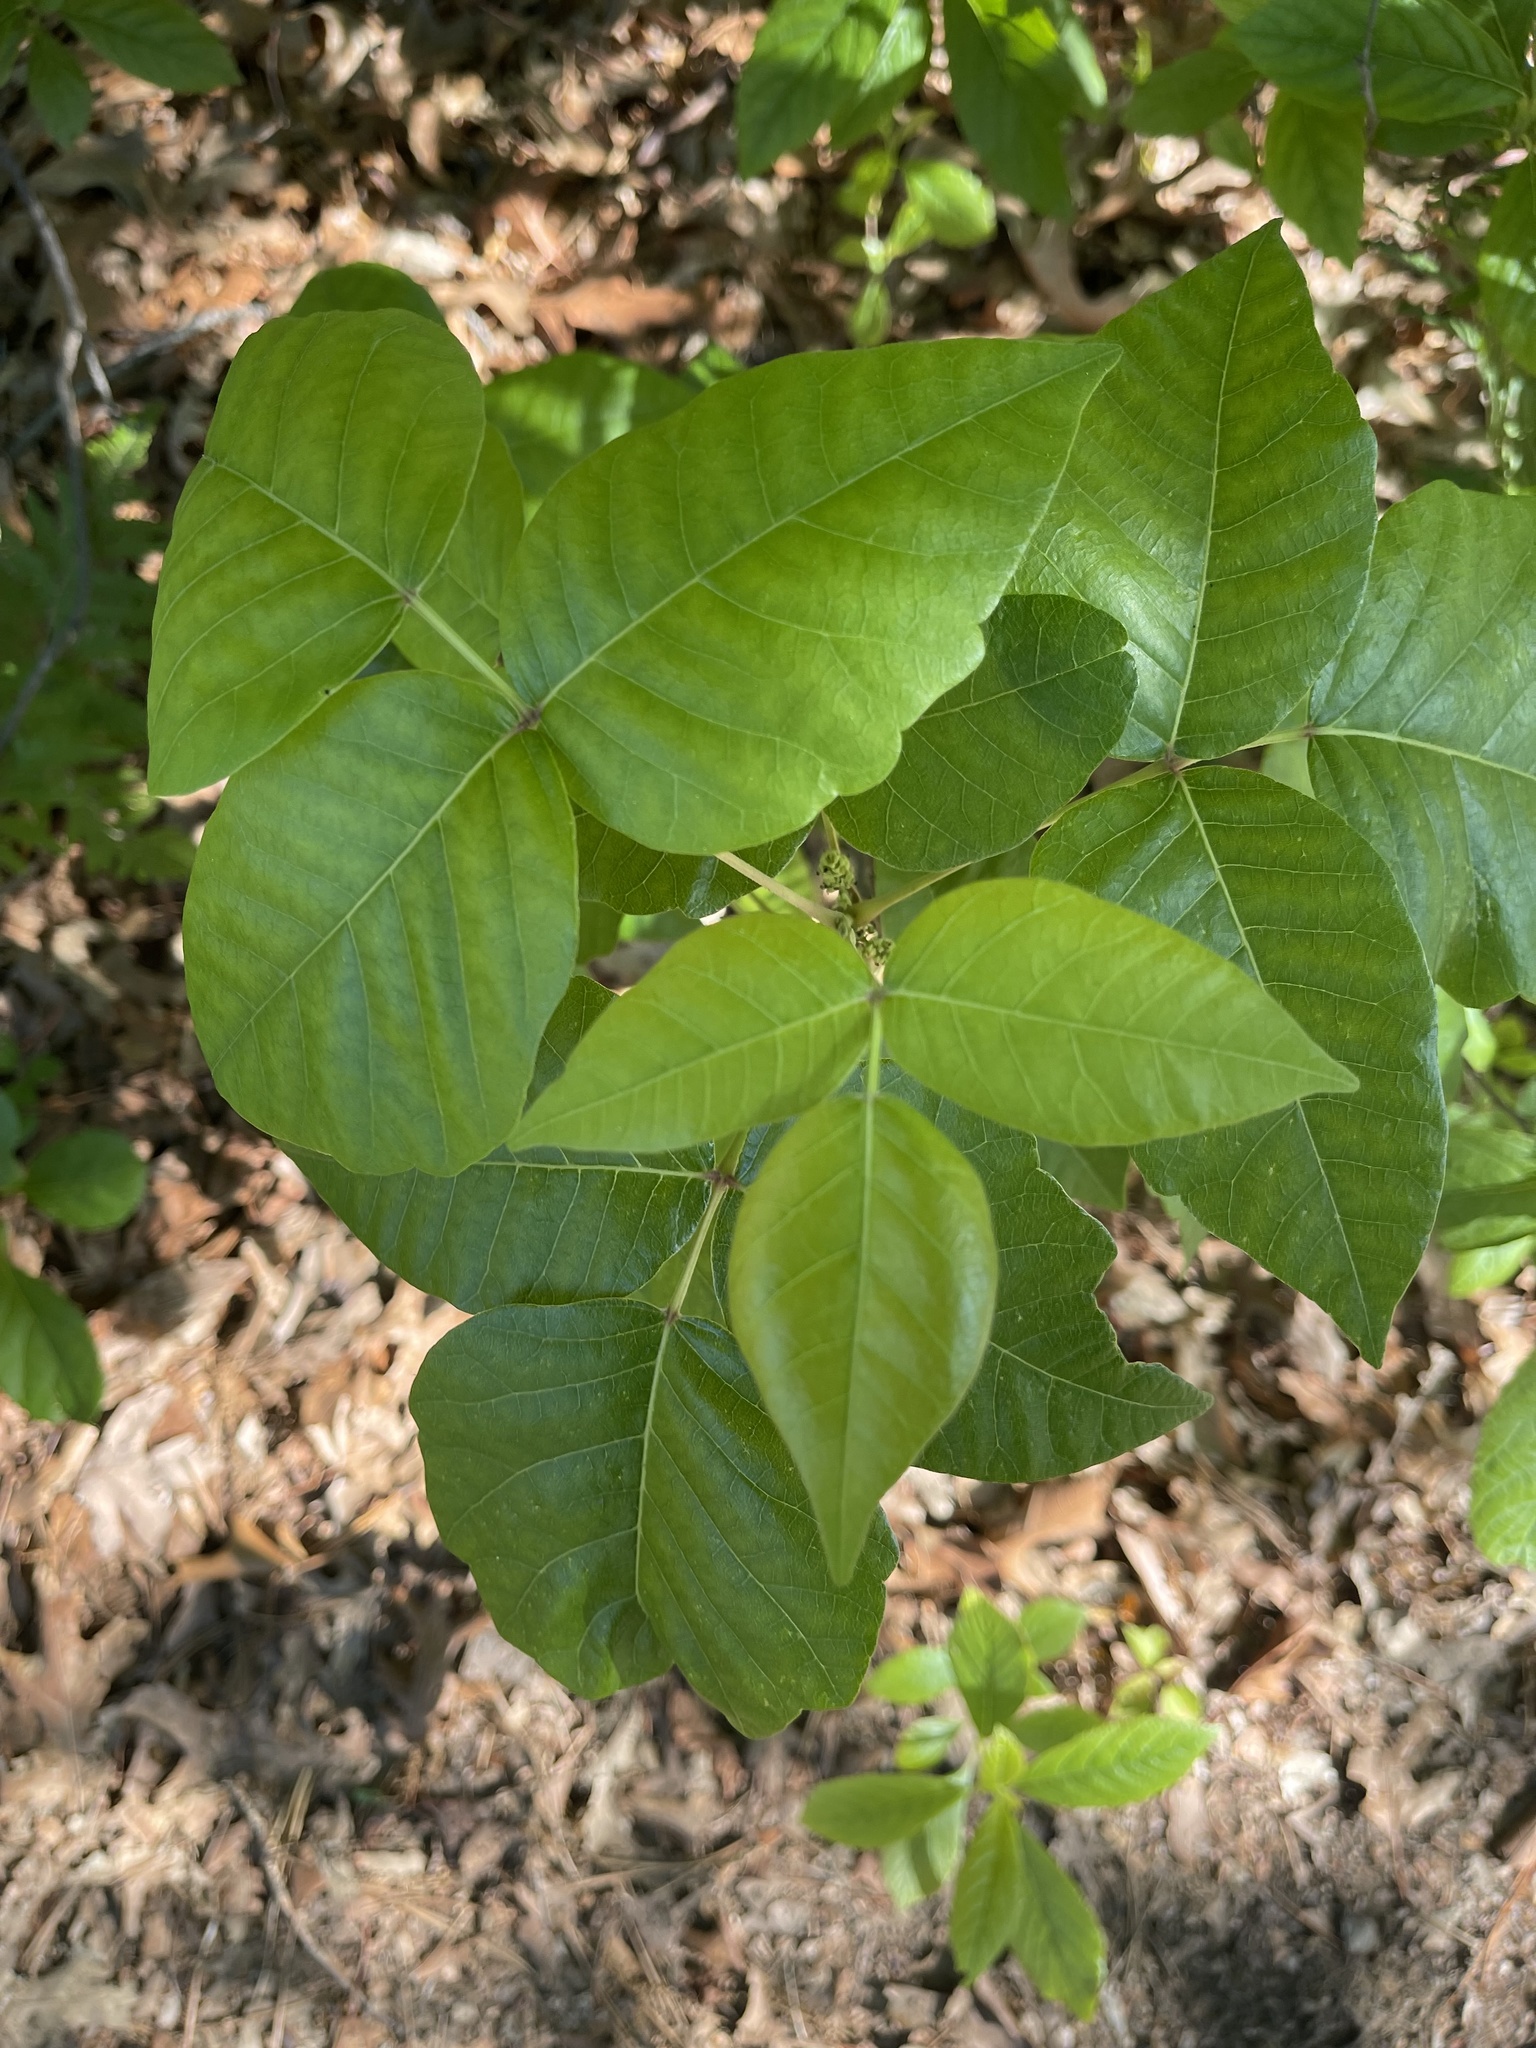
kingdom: Plantae
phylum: Tracheophyta
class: Magnoliopsida
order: Sapindales
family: Anacardiaceae
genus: Toxicodendron
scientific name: Toxicodendron radicans
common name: Poison ivy
